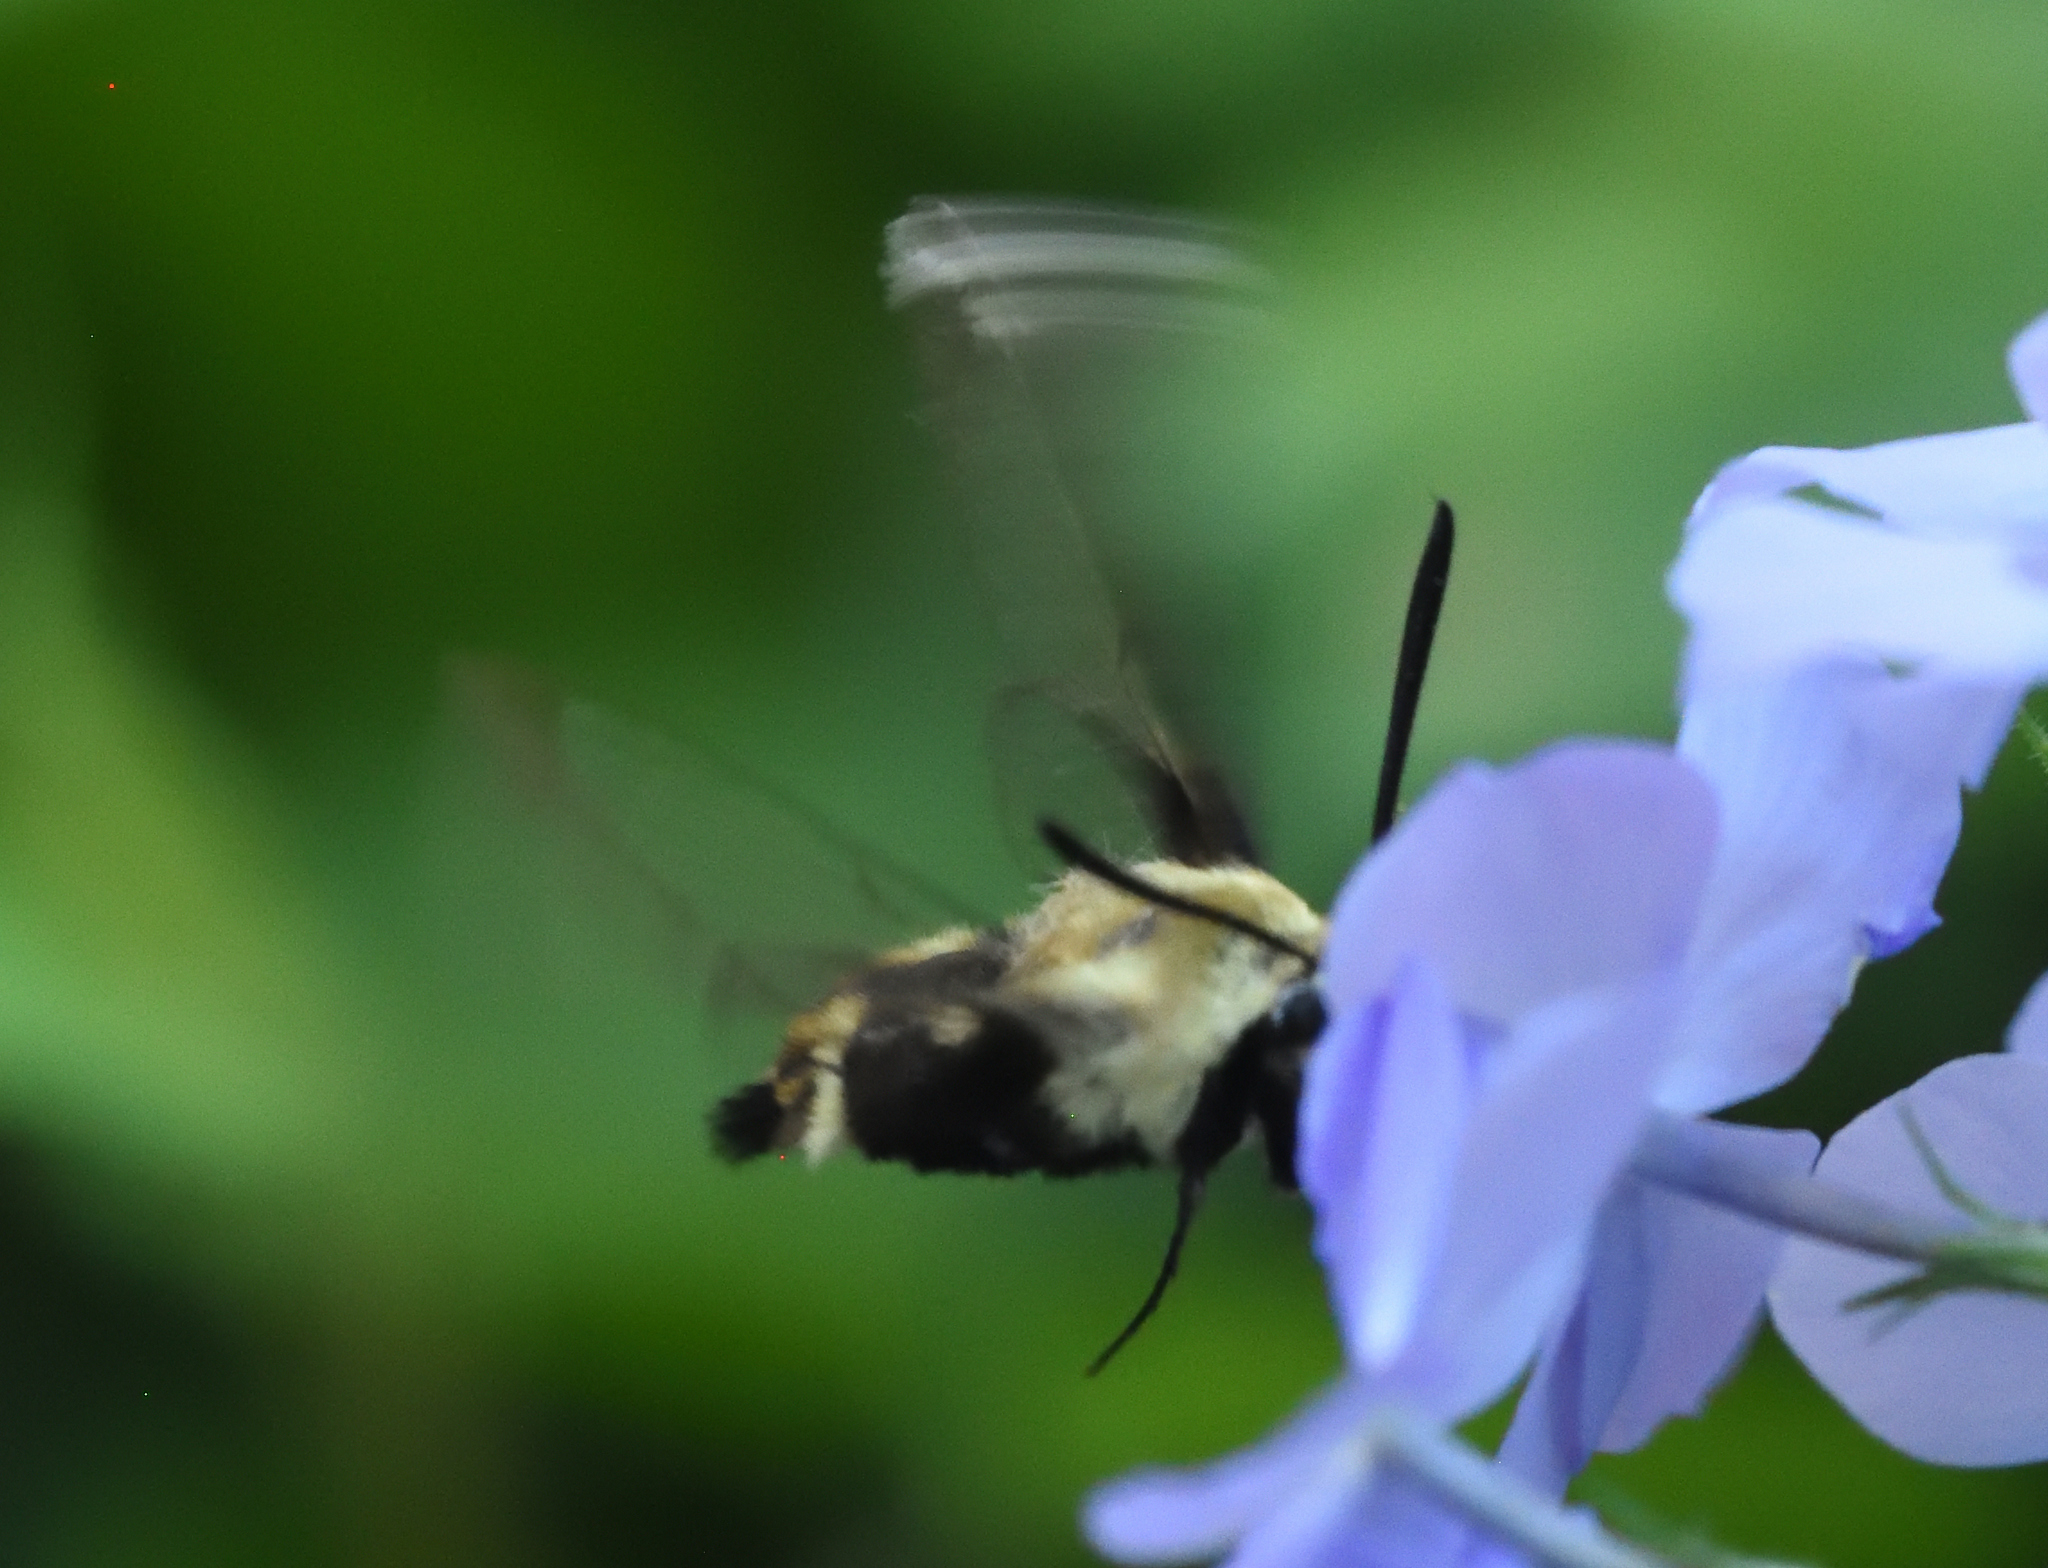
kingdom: Animalia
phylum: Arthropoda
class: Insecta
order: Lepidoptera
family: Sphingidae
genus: Hemaris
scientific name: Hemaris diffinis
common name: Bumblebee moth
